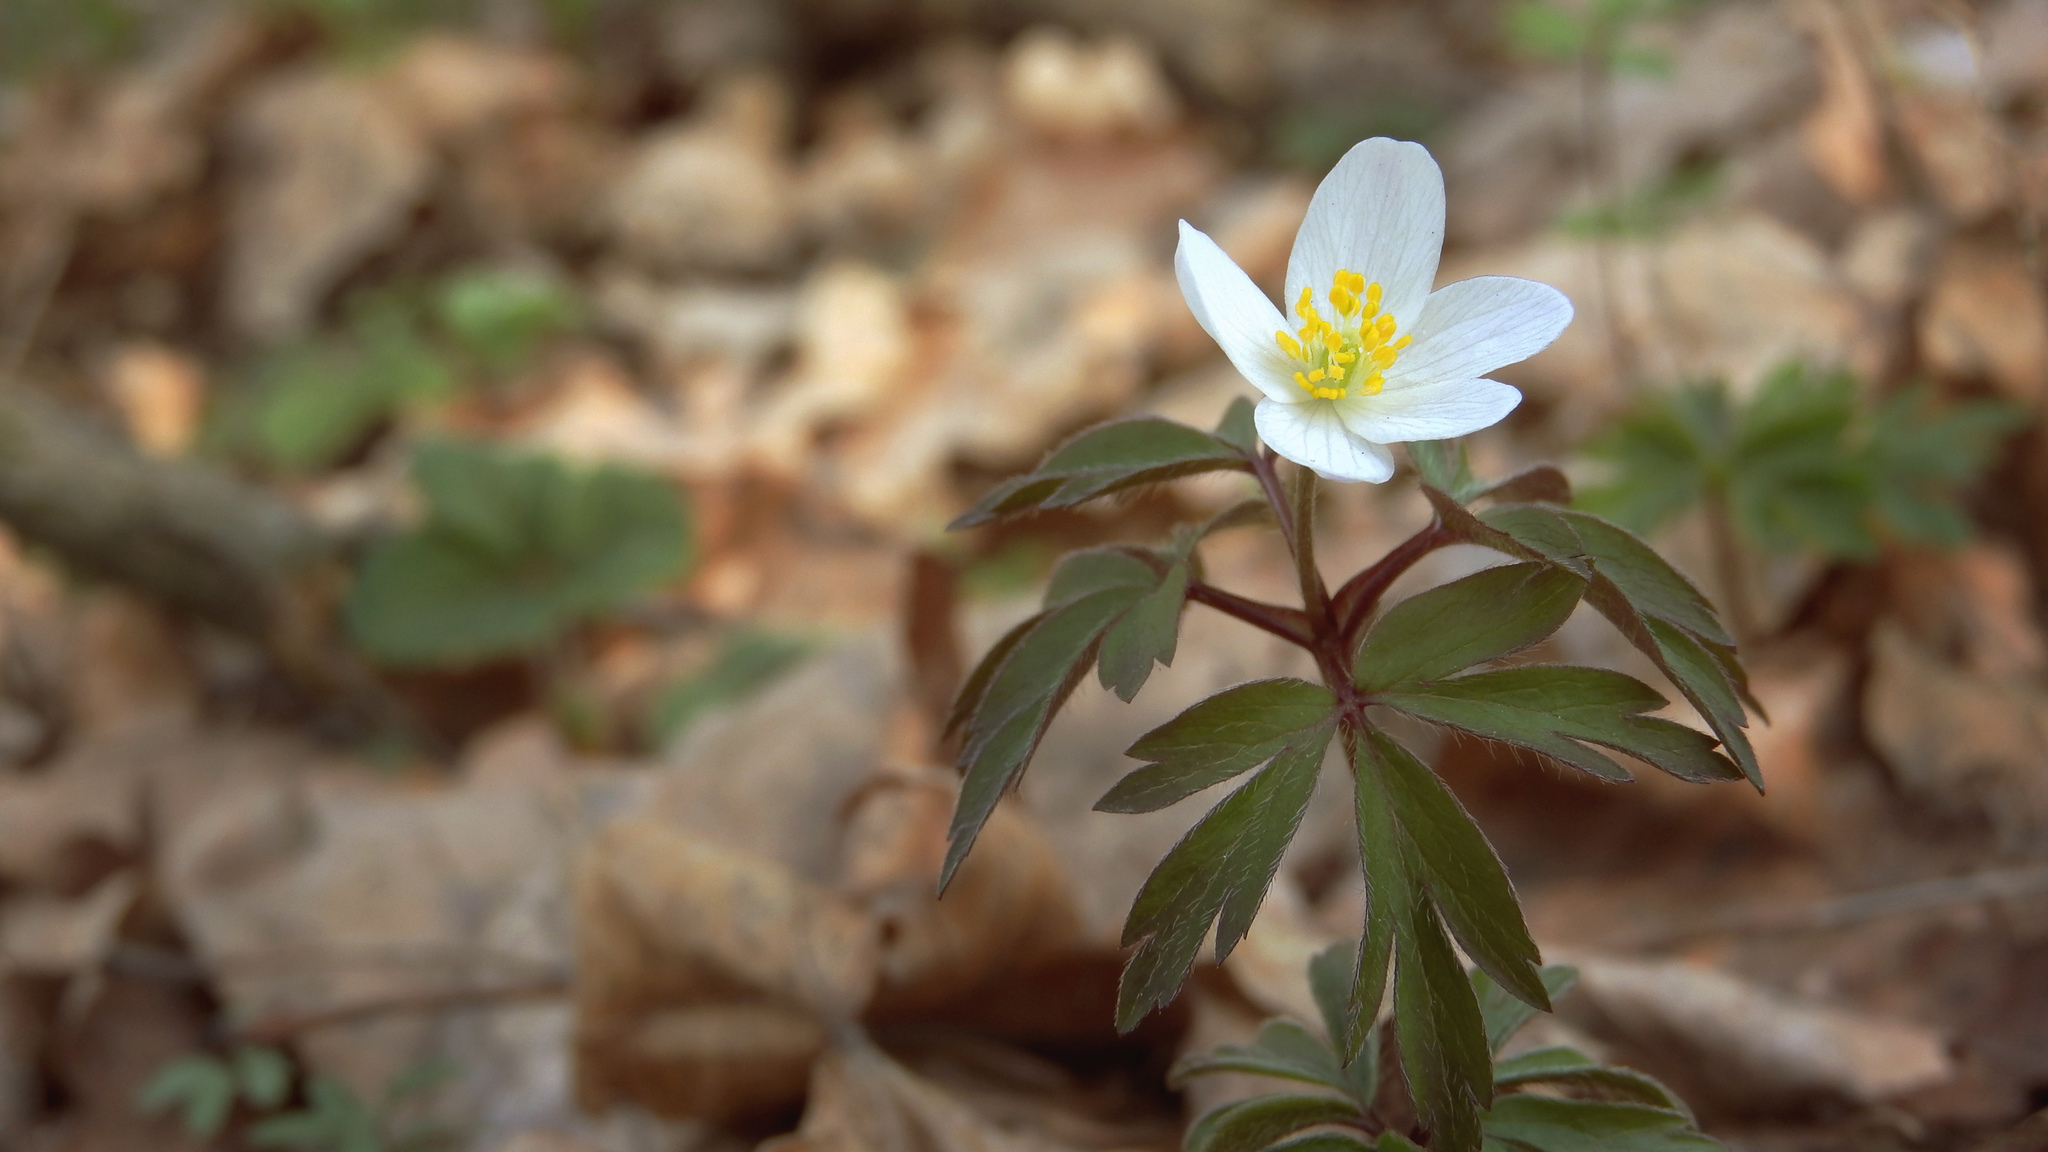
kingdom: Plantae
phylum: Tracheophyta
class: Magnoliopsida
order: Ranunculales
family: Ranunculaceae
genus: Anemone
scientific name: Anemone nemorosa
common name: Wood anemone
